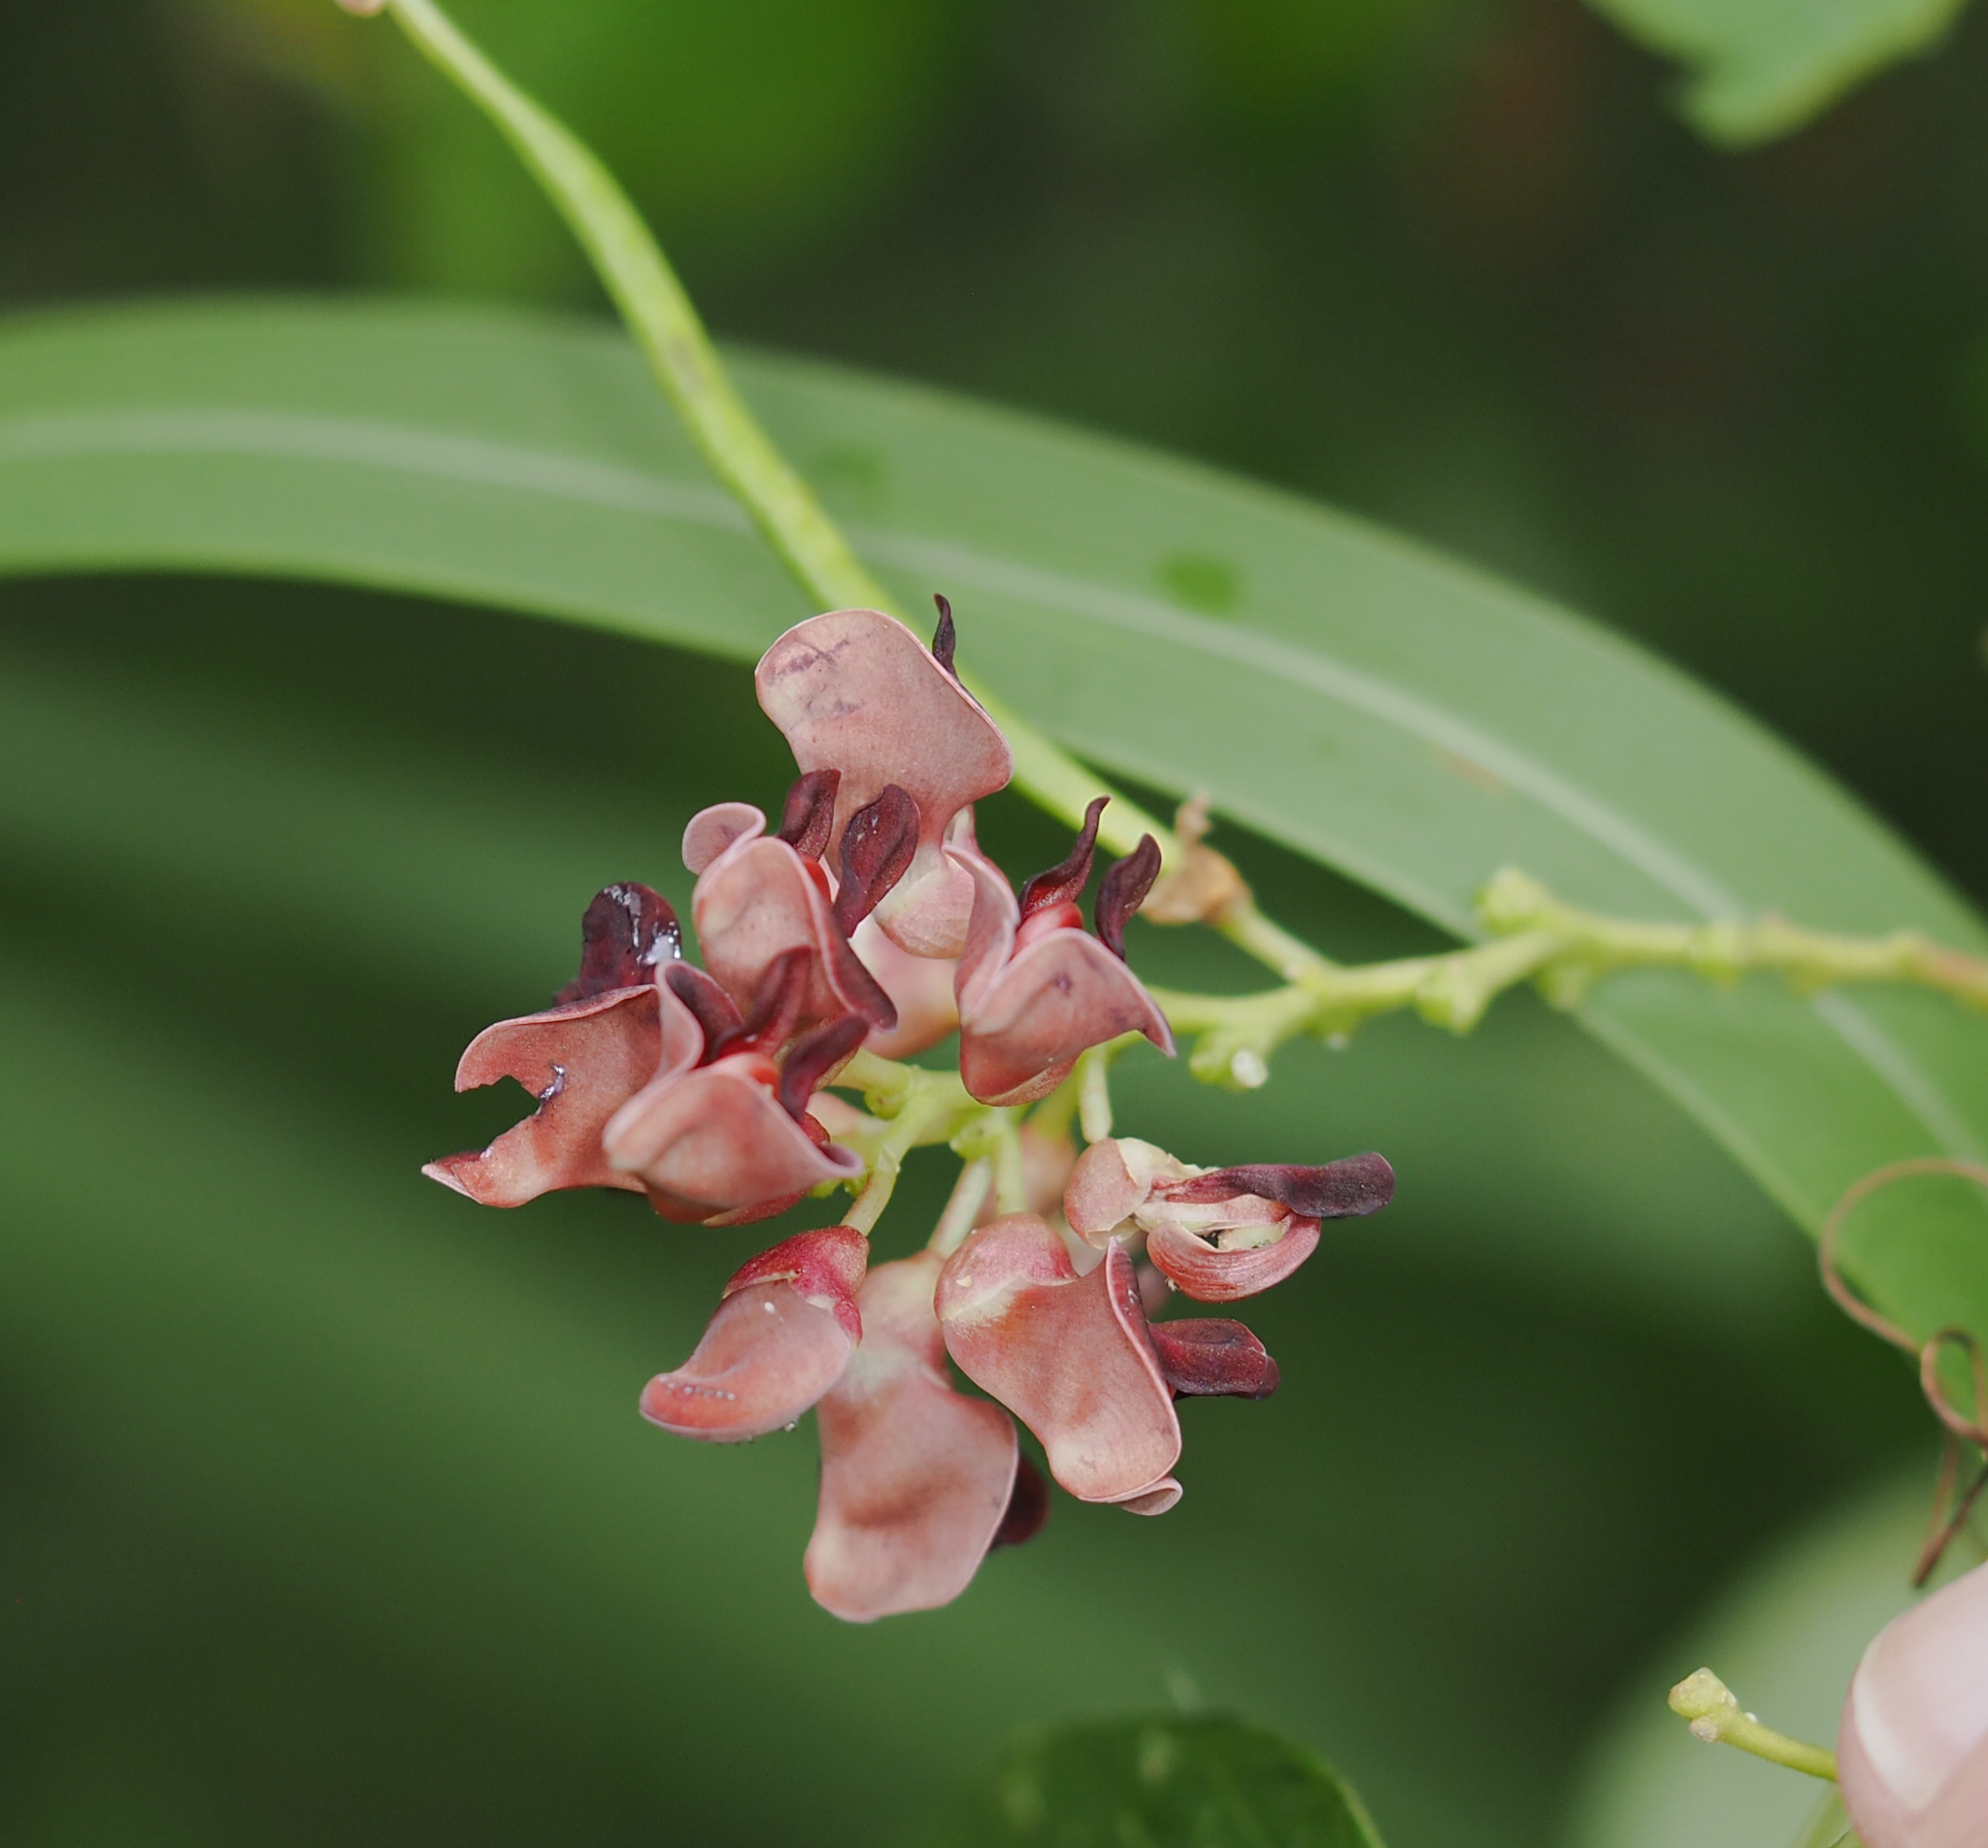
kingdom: Plantae
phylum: Tracheophyta
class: Magnoliopsida
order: Fabales
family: Fabaceae
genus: Apios
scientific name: Apios americana
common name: American potato-bean
